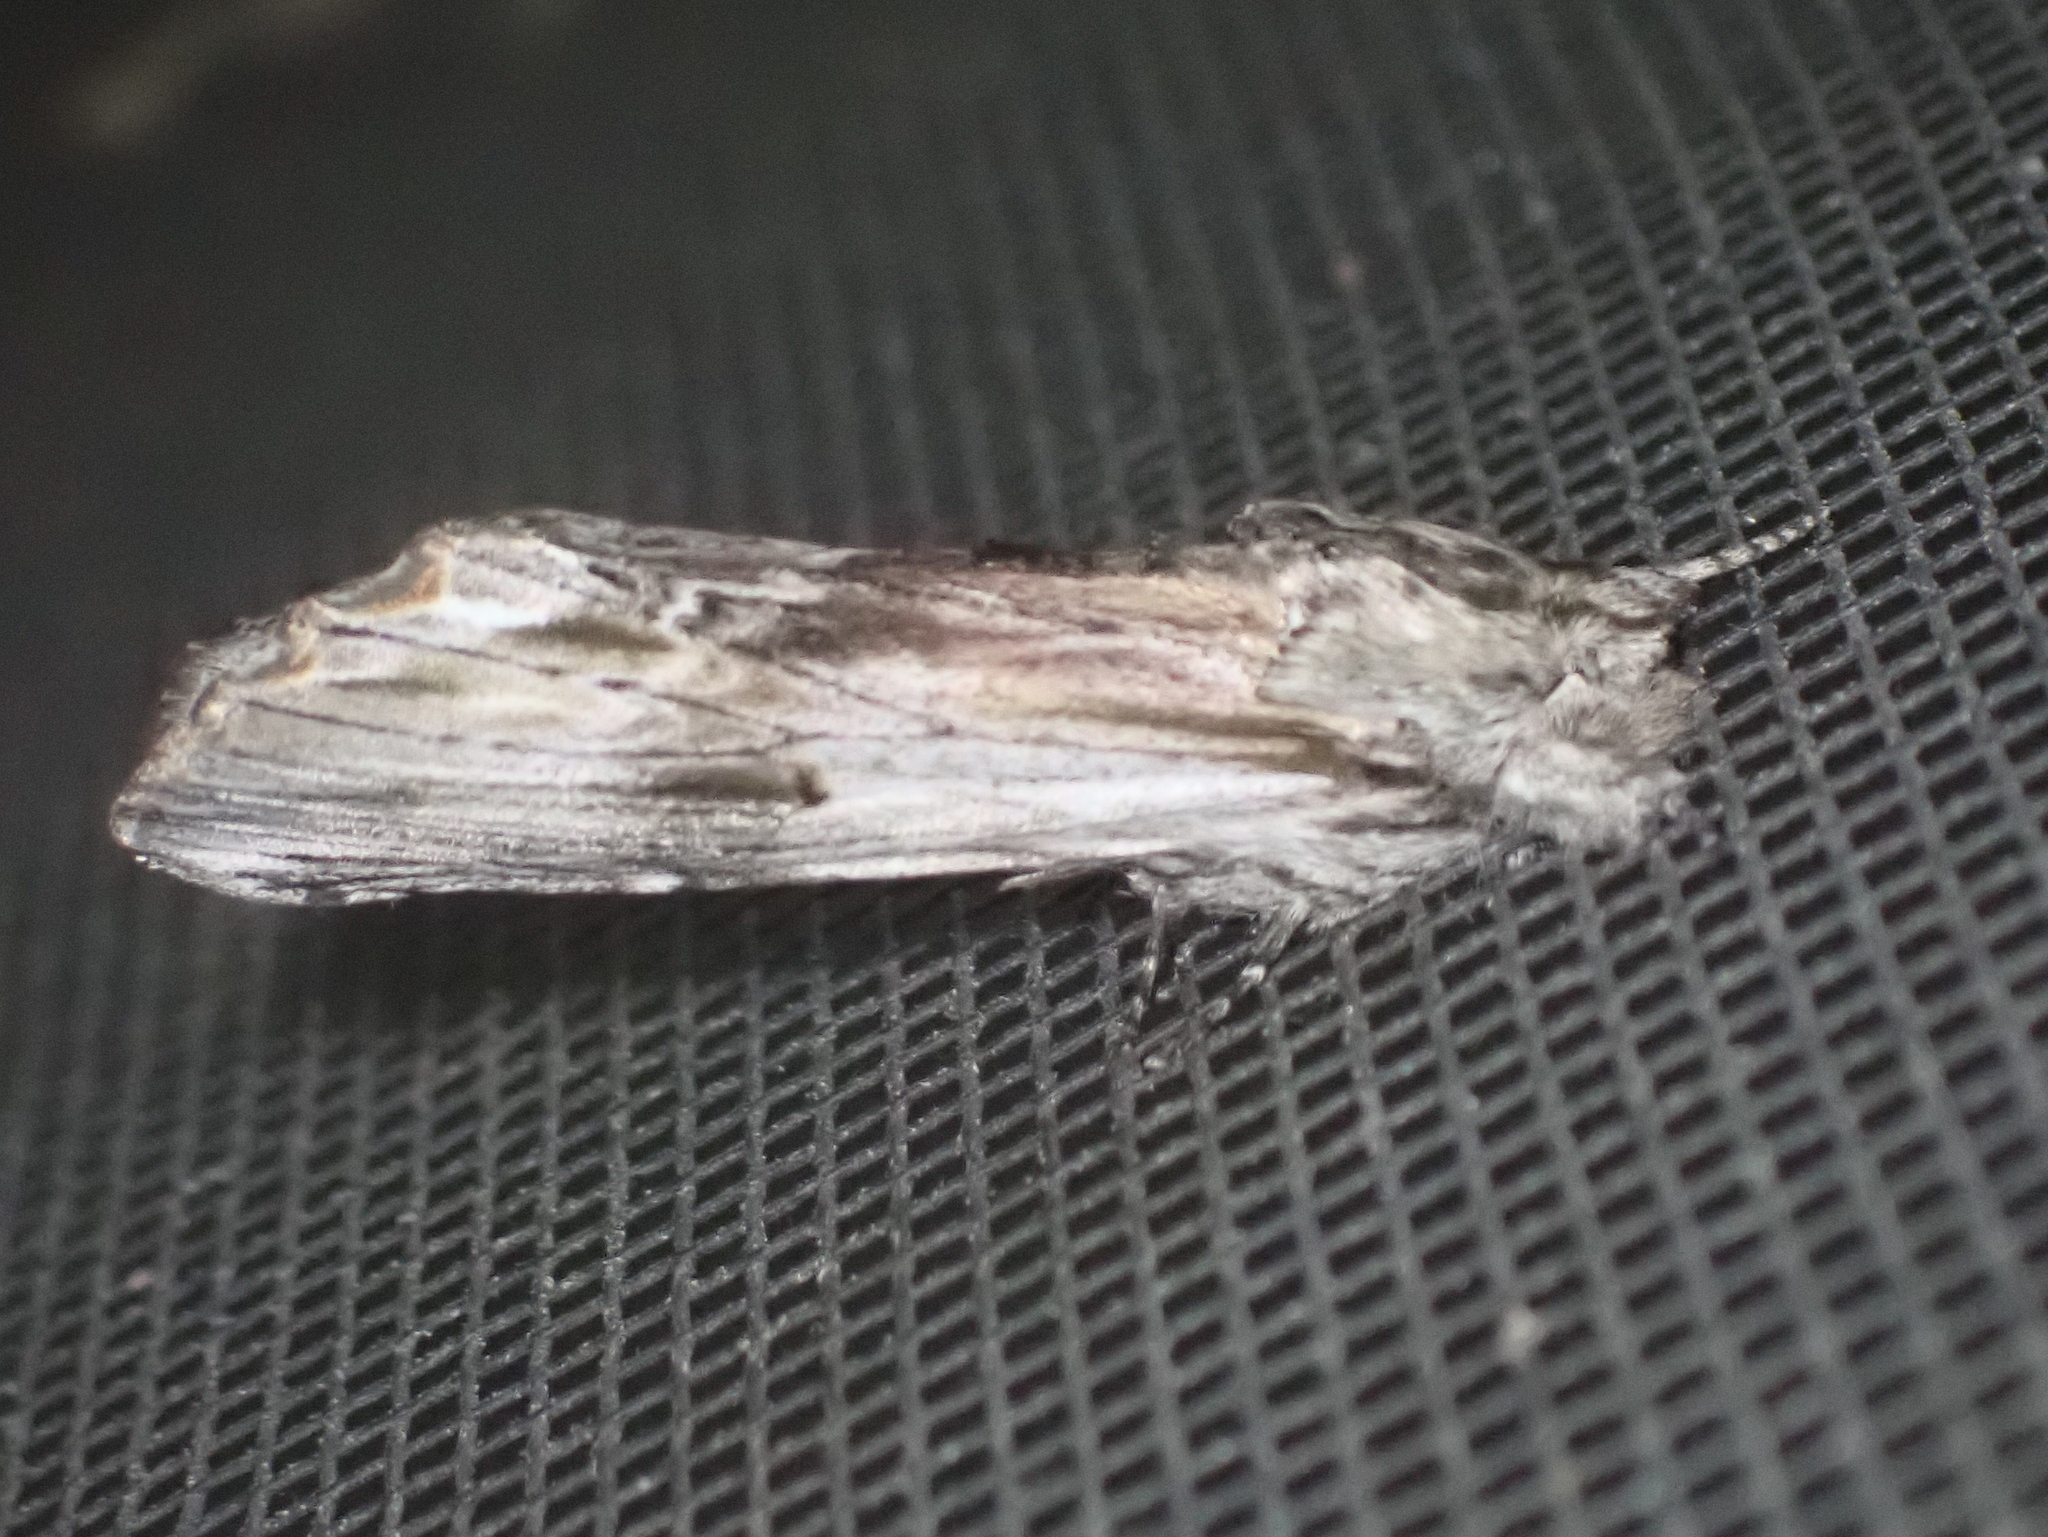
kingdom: Animalia
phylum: Arthropoda
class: Insecta
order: Lepidoptera
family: Notodontidae
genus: Oligocentria
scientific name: Oligocentria Ianassa lignicolor
